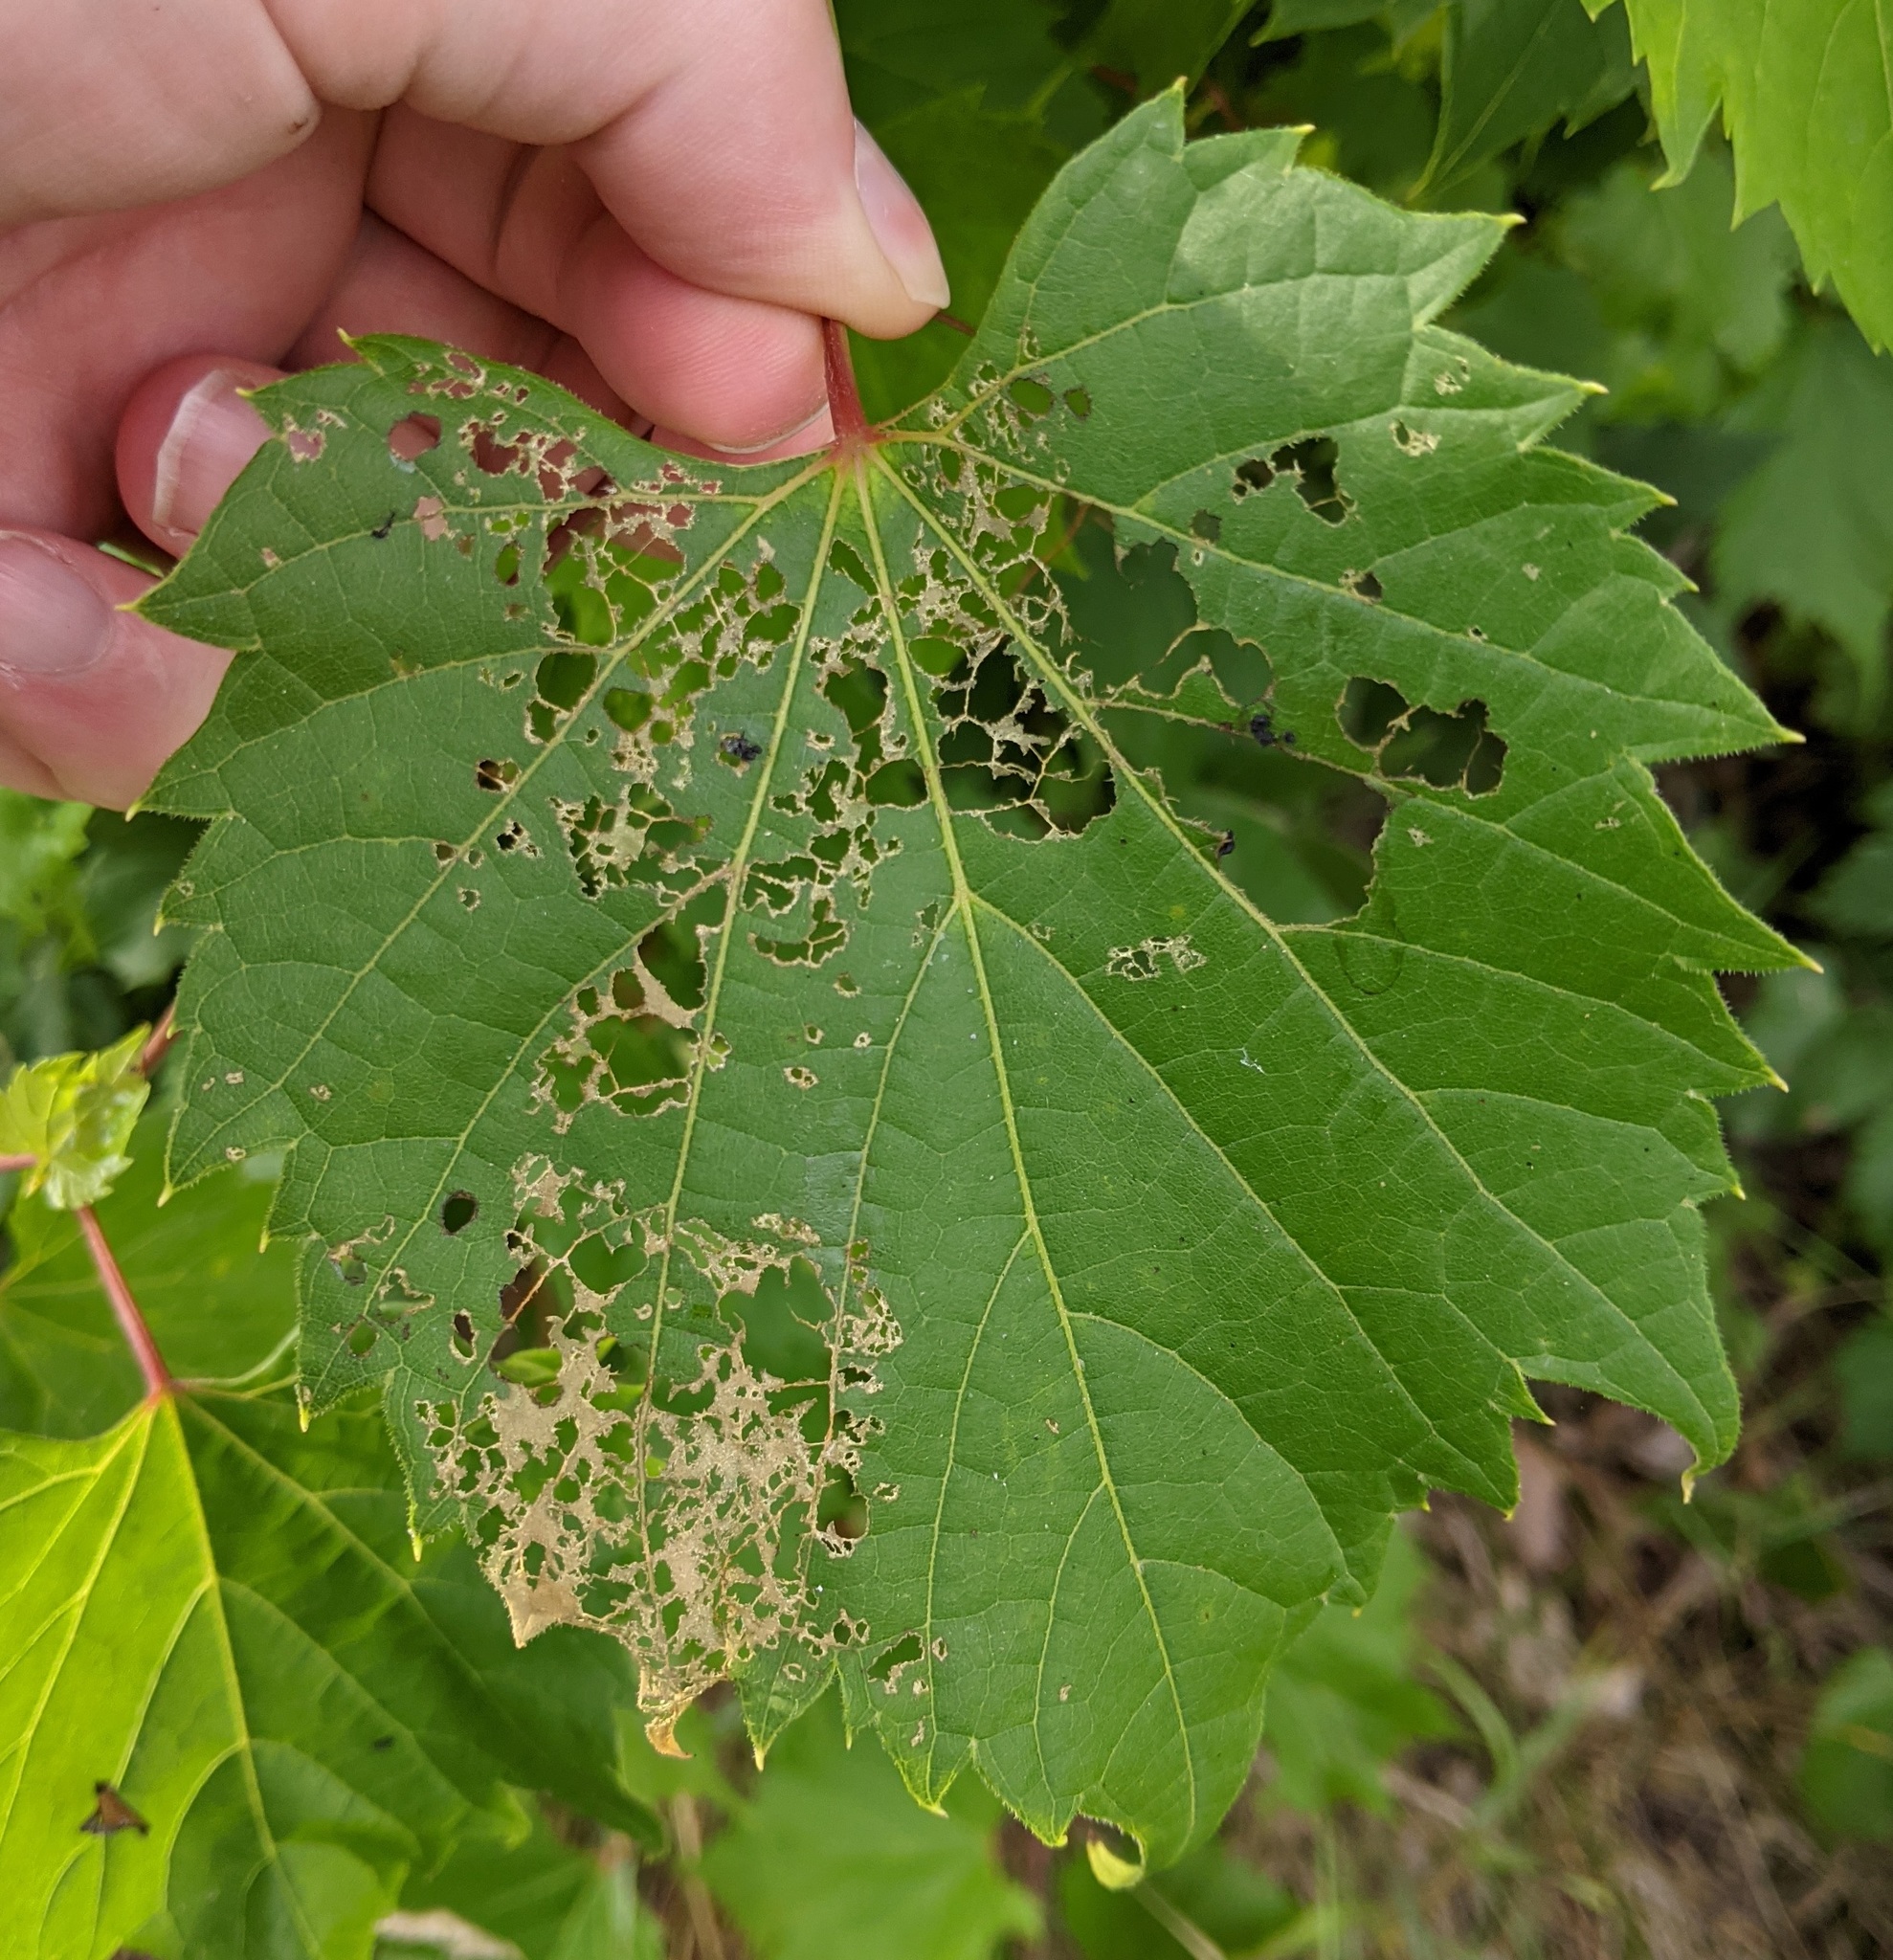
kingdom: Animalia
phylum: Arthropoda
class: Insecta
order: Coleoptera
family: Scarabaeidae
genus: Popillia
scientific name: Popillia japonica
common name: Japanese beetle
